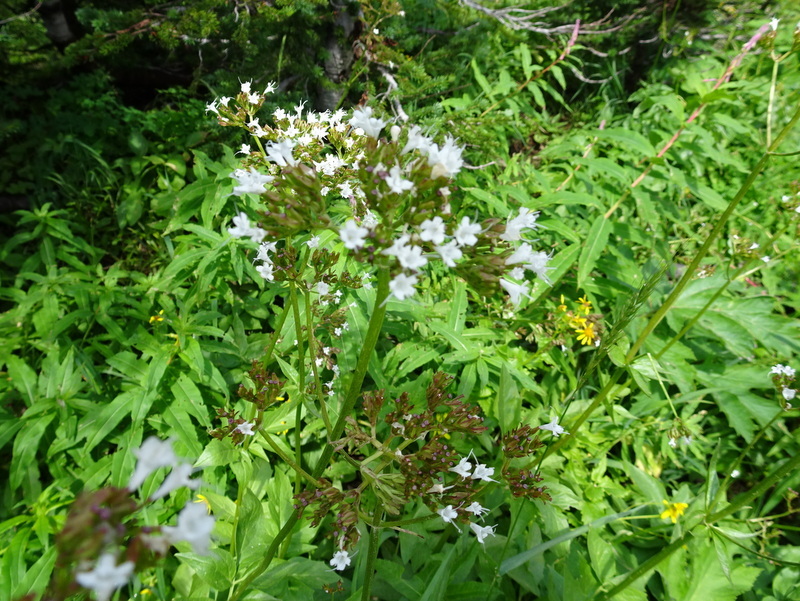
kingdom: Plantae
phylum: Tracheophyta
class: Magnoliopsida
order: Dipsacales
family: Caprifoliaceae
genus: Valeriana
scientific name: Valeriana sitchensis
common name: Pacific valerian
